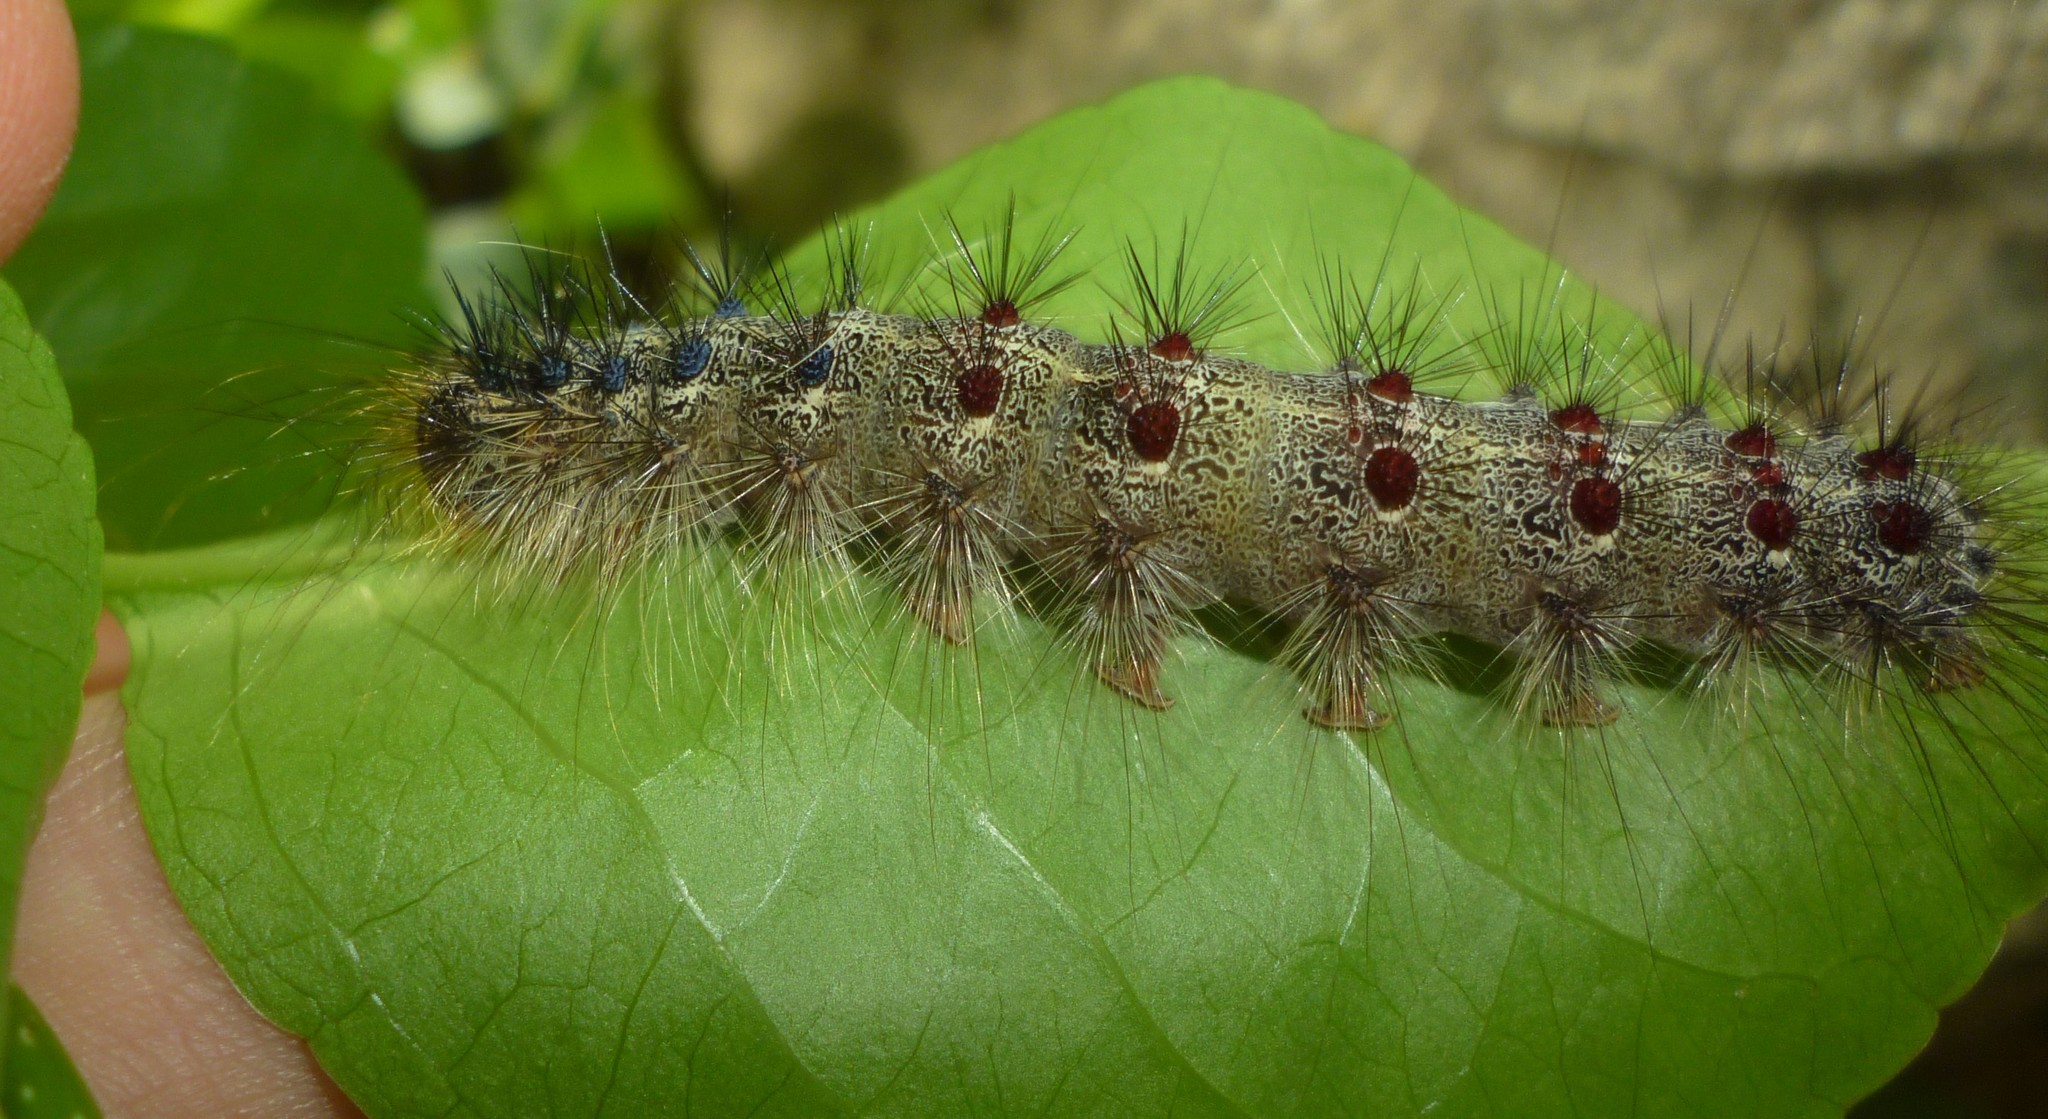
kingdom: Animalia
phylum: Arthropoda
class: Insecta
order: Lepidoptera
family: Erebidae
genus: Lymantria
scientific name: Lymantria dispar
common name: Gypsy moth
